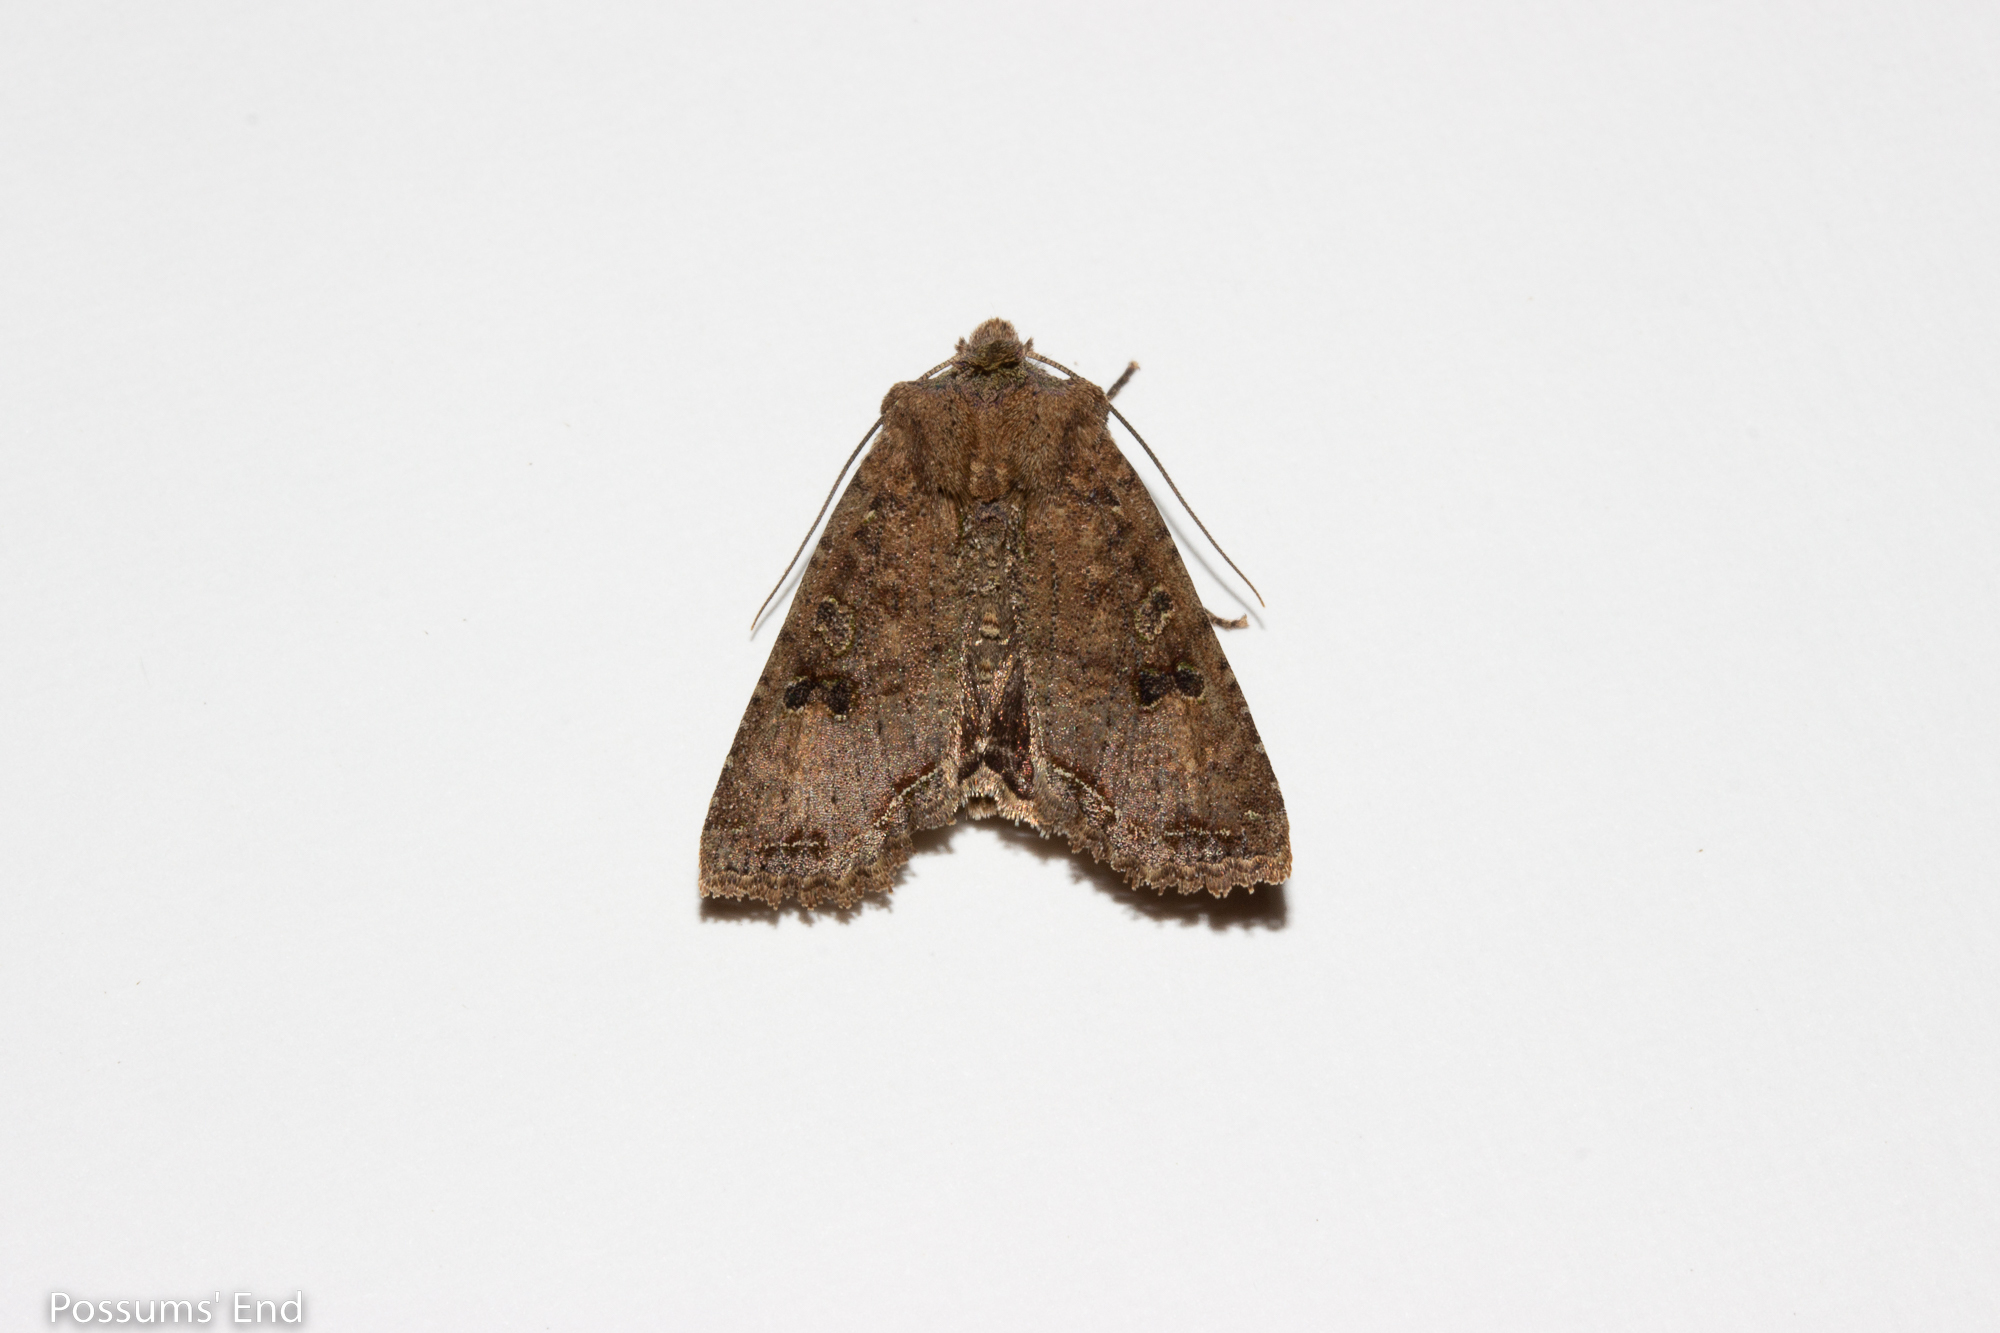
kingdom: Animalia
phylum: Arthropoda
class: Insecta
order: Lepidoptera
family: Noctuidae
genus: Meterana
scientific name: Meterana inchoata
